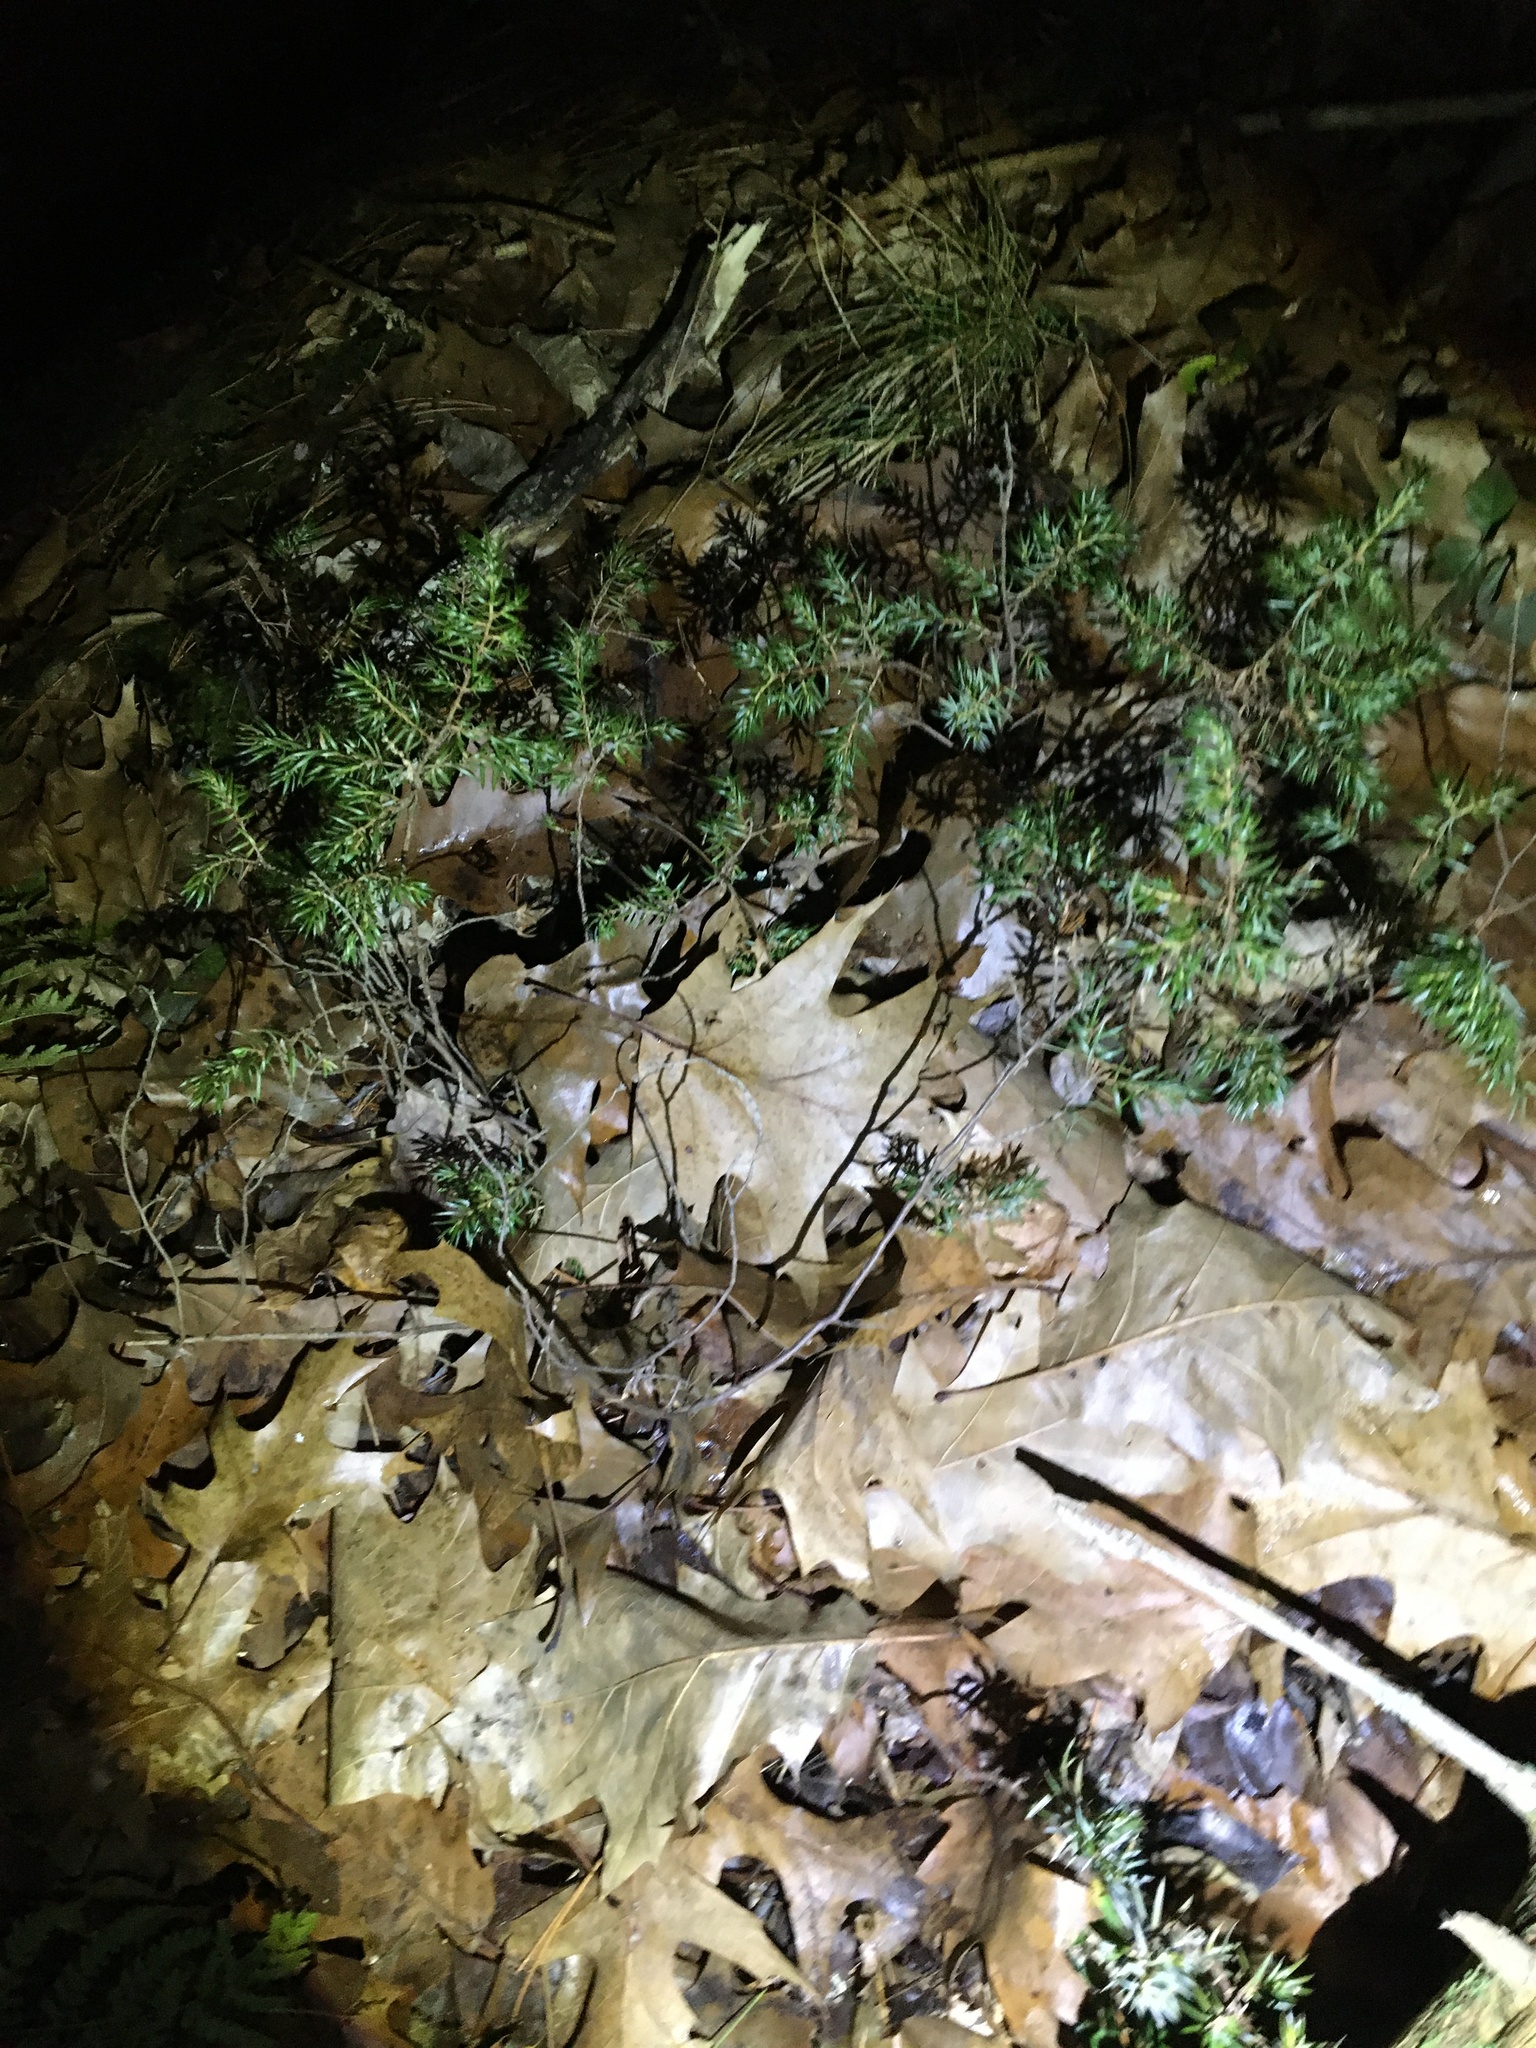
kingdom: Plantae
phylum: Tracheophyta
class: Pinopsida
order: Pinales
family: Cupressaceae
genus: Juniperus
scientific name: Juniperus communis
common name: Common juniper
